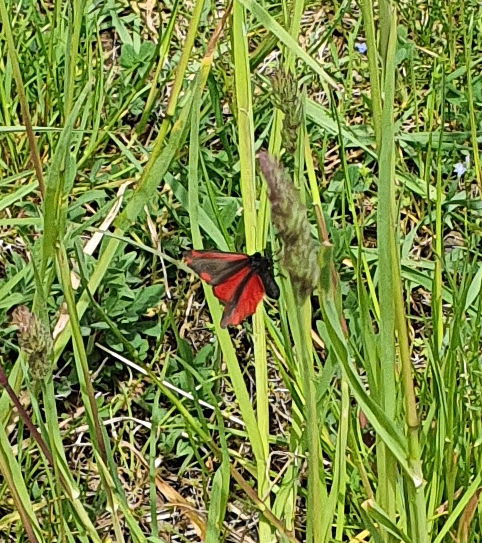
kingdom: Animalia
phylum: Arthropoda
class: Insecta
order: Lepidoptera
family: Erebidae
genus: Tyria
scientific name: Tyria jacobaeae
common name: Cinnabar
